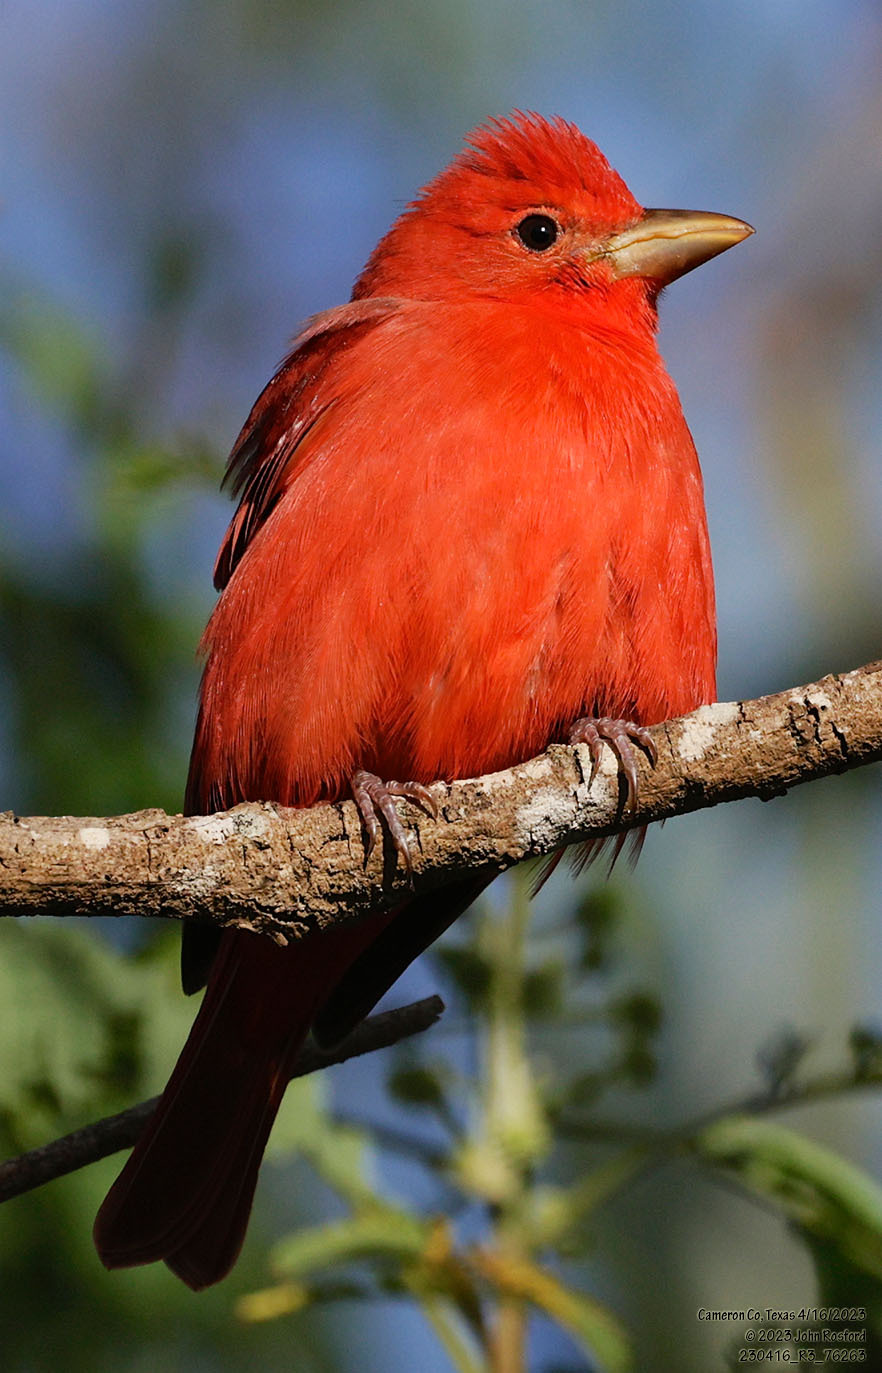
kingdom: Animalia
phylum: Chordata
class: Aves
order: Passeriformes
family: Cardinalidae
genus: Piranga
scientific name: Piranga rubra
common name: Summer tanager
